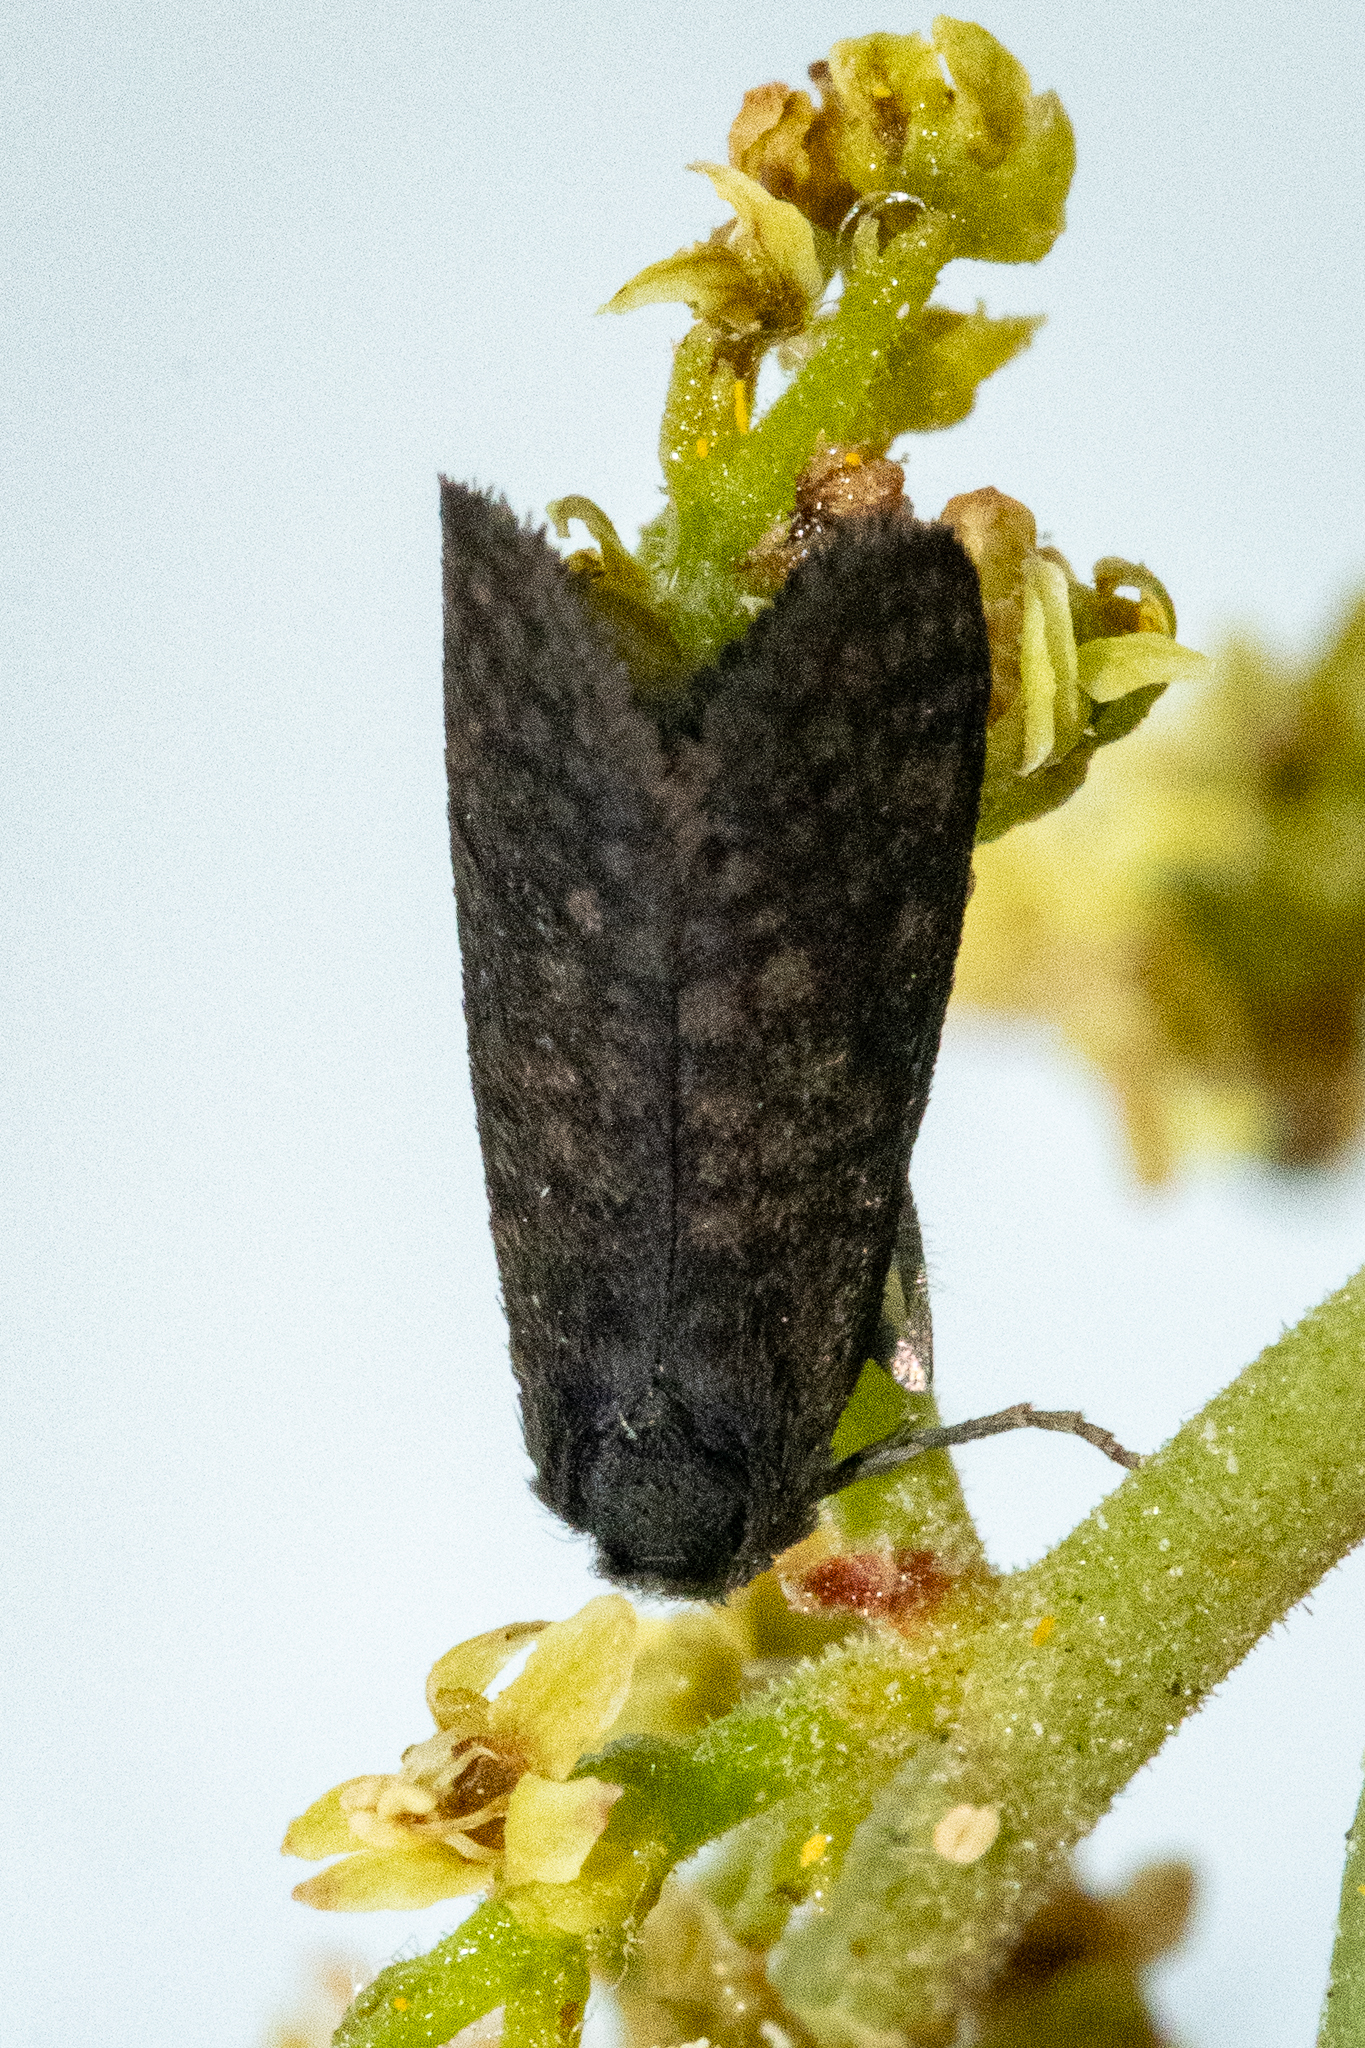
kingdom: Animalia
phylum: Arthropoda
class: Insecta
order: Lepidoptera
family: Psychidae
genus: Typhonia
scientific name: Typhonia picea
